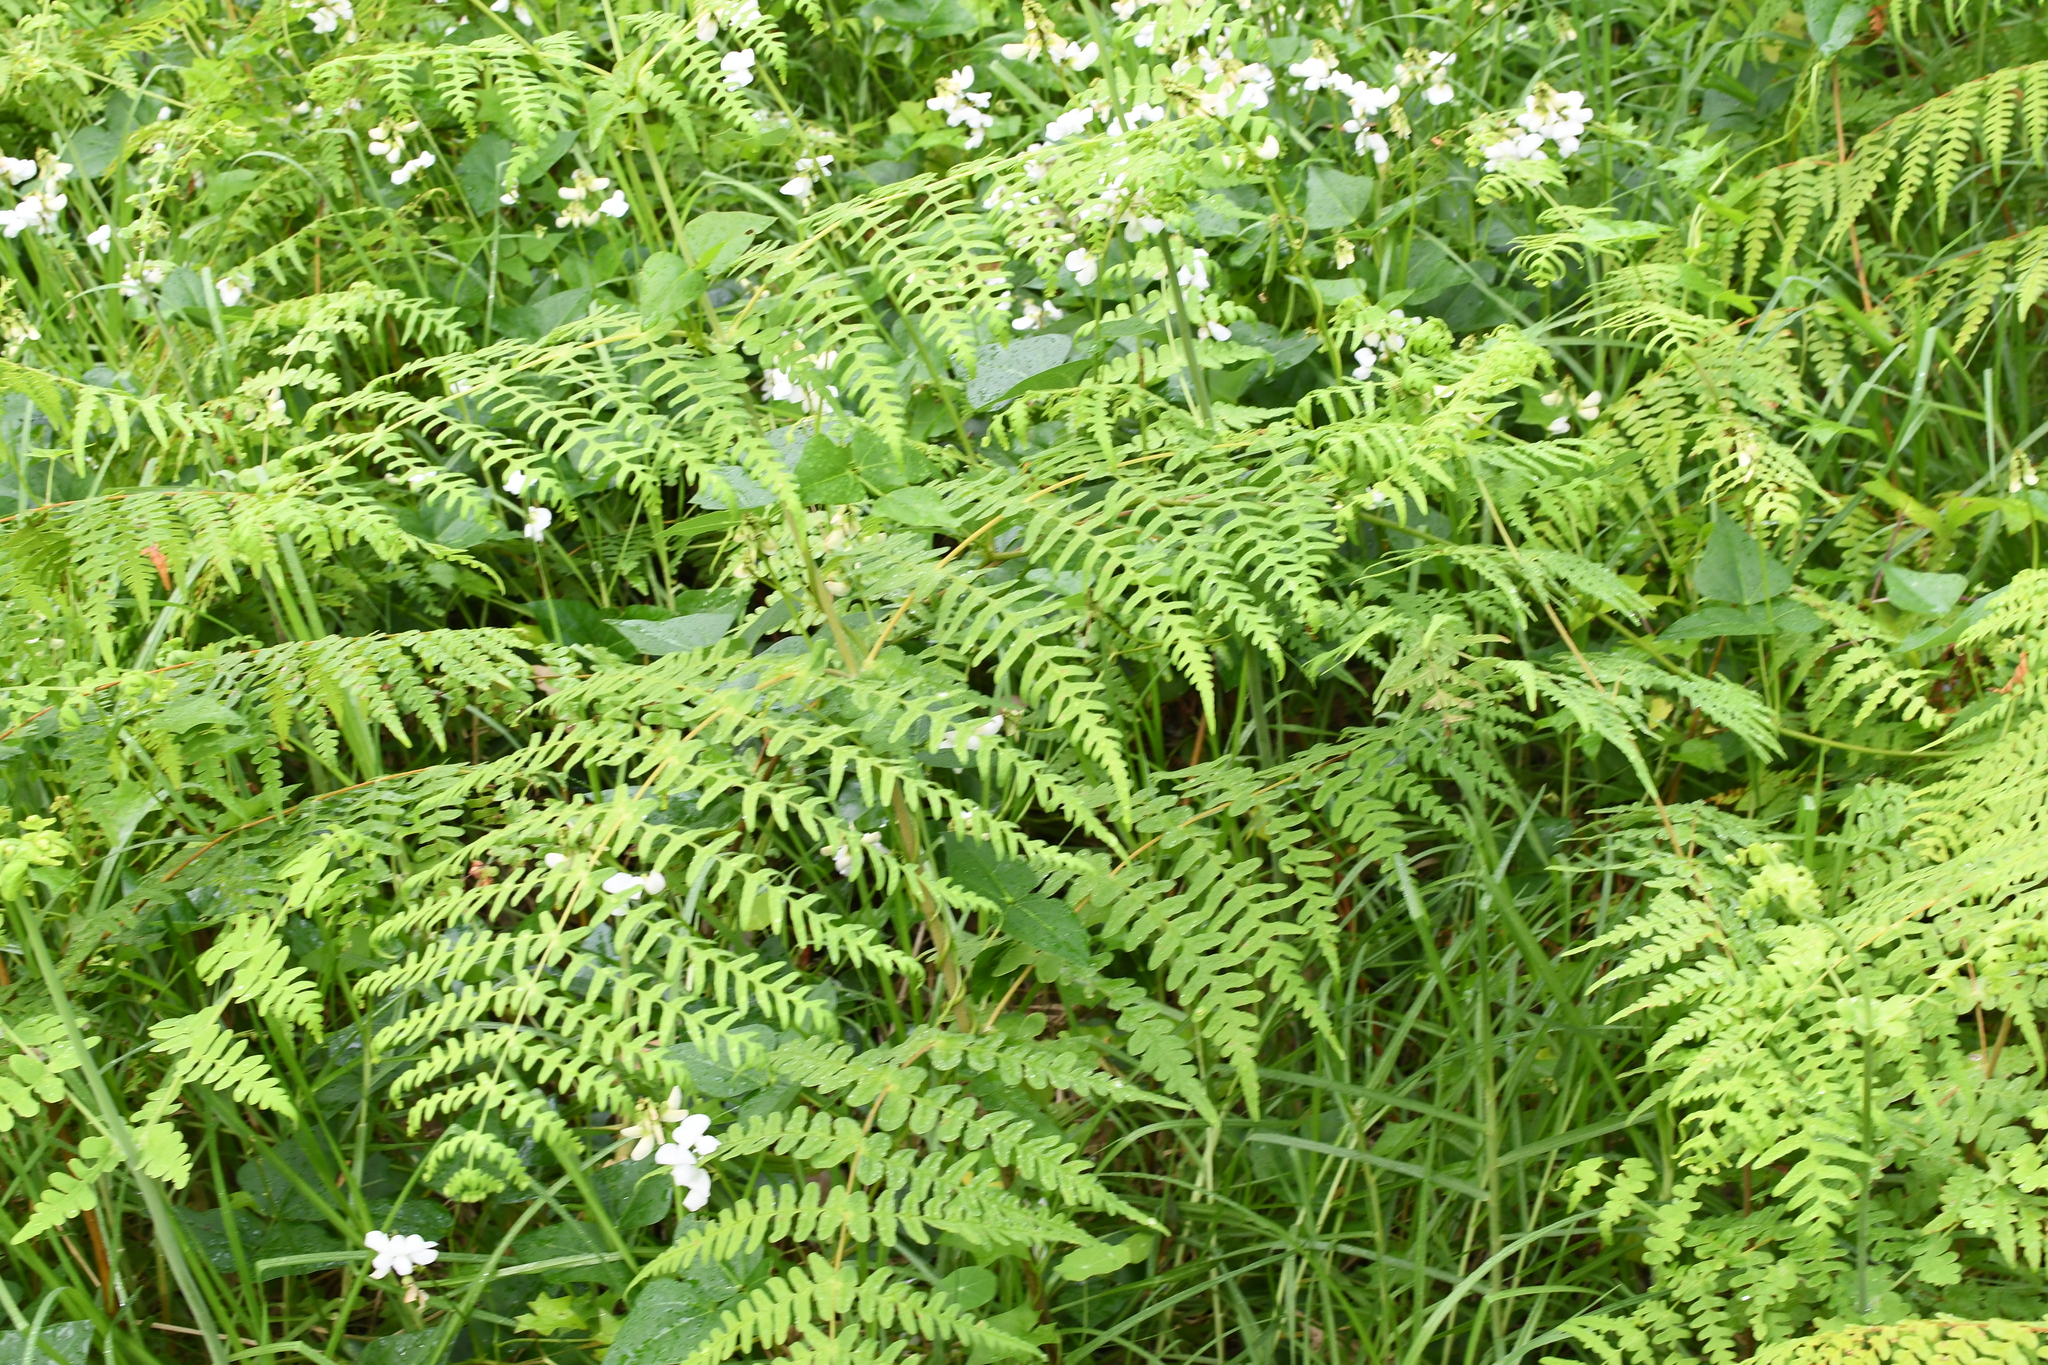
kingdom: Plantae
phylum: Tracheophyta
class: Polypodiopsida
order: Polypodiales
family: Dennstaedtiaceae
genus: Histiopteris
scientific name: Histiopteris incisa
